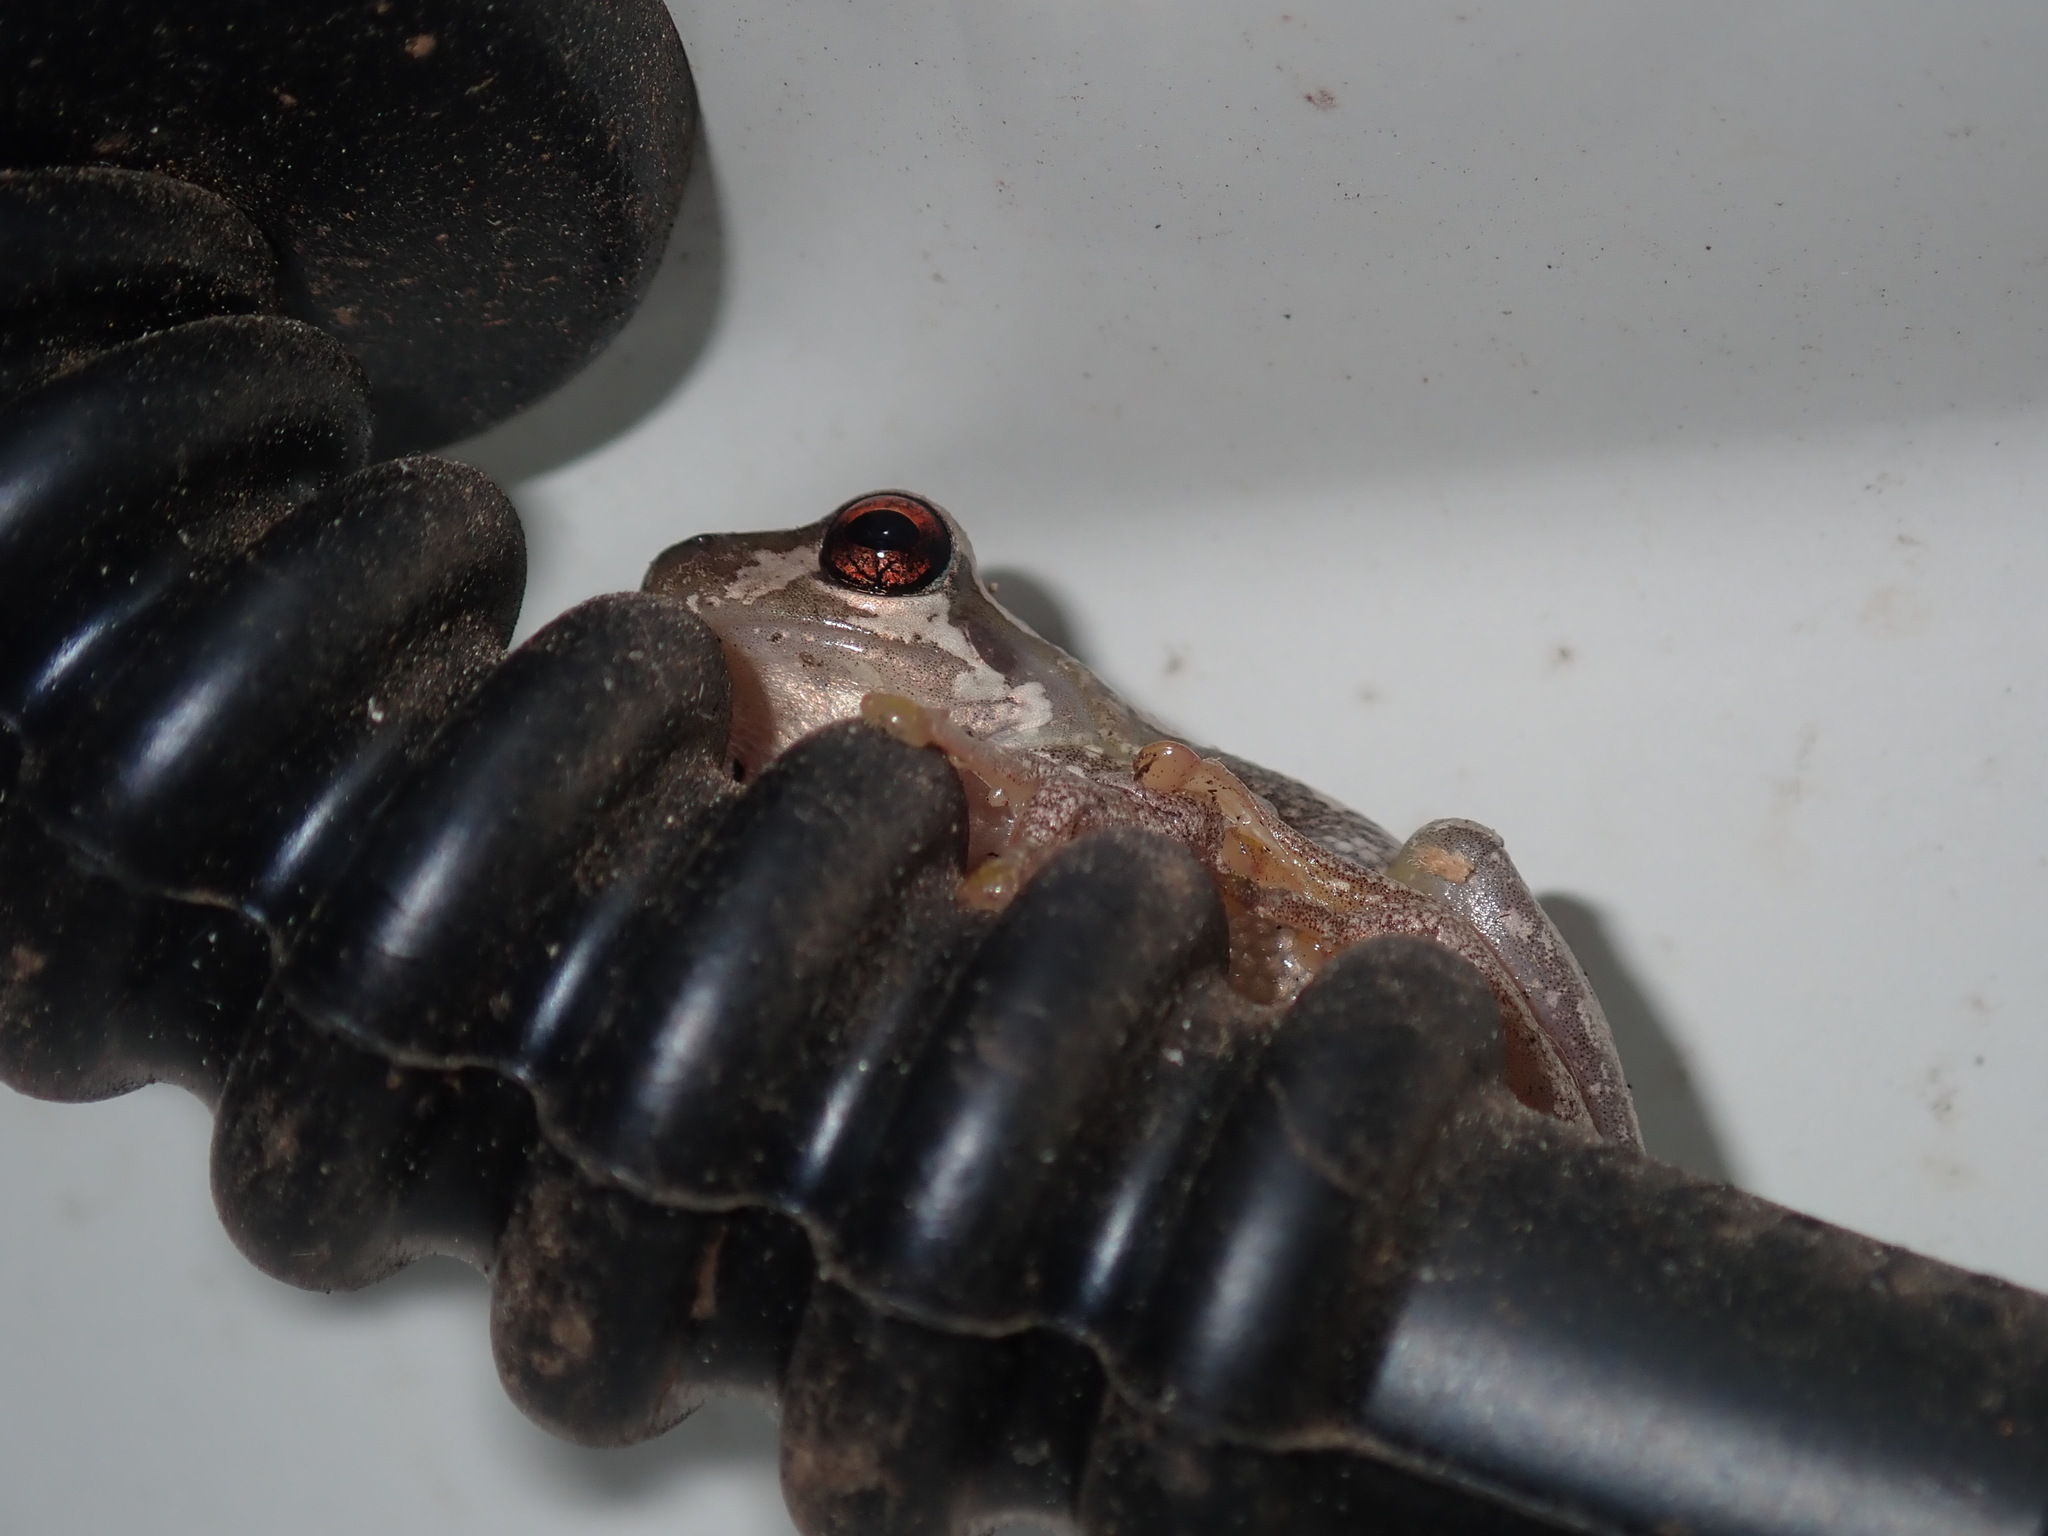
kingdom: Animalia
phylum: Chordata
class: Amphibia
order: Anura
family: Pelodryadidae
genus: Litoria
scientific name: Litoria dentata
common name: Bleating tree frog
